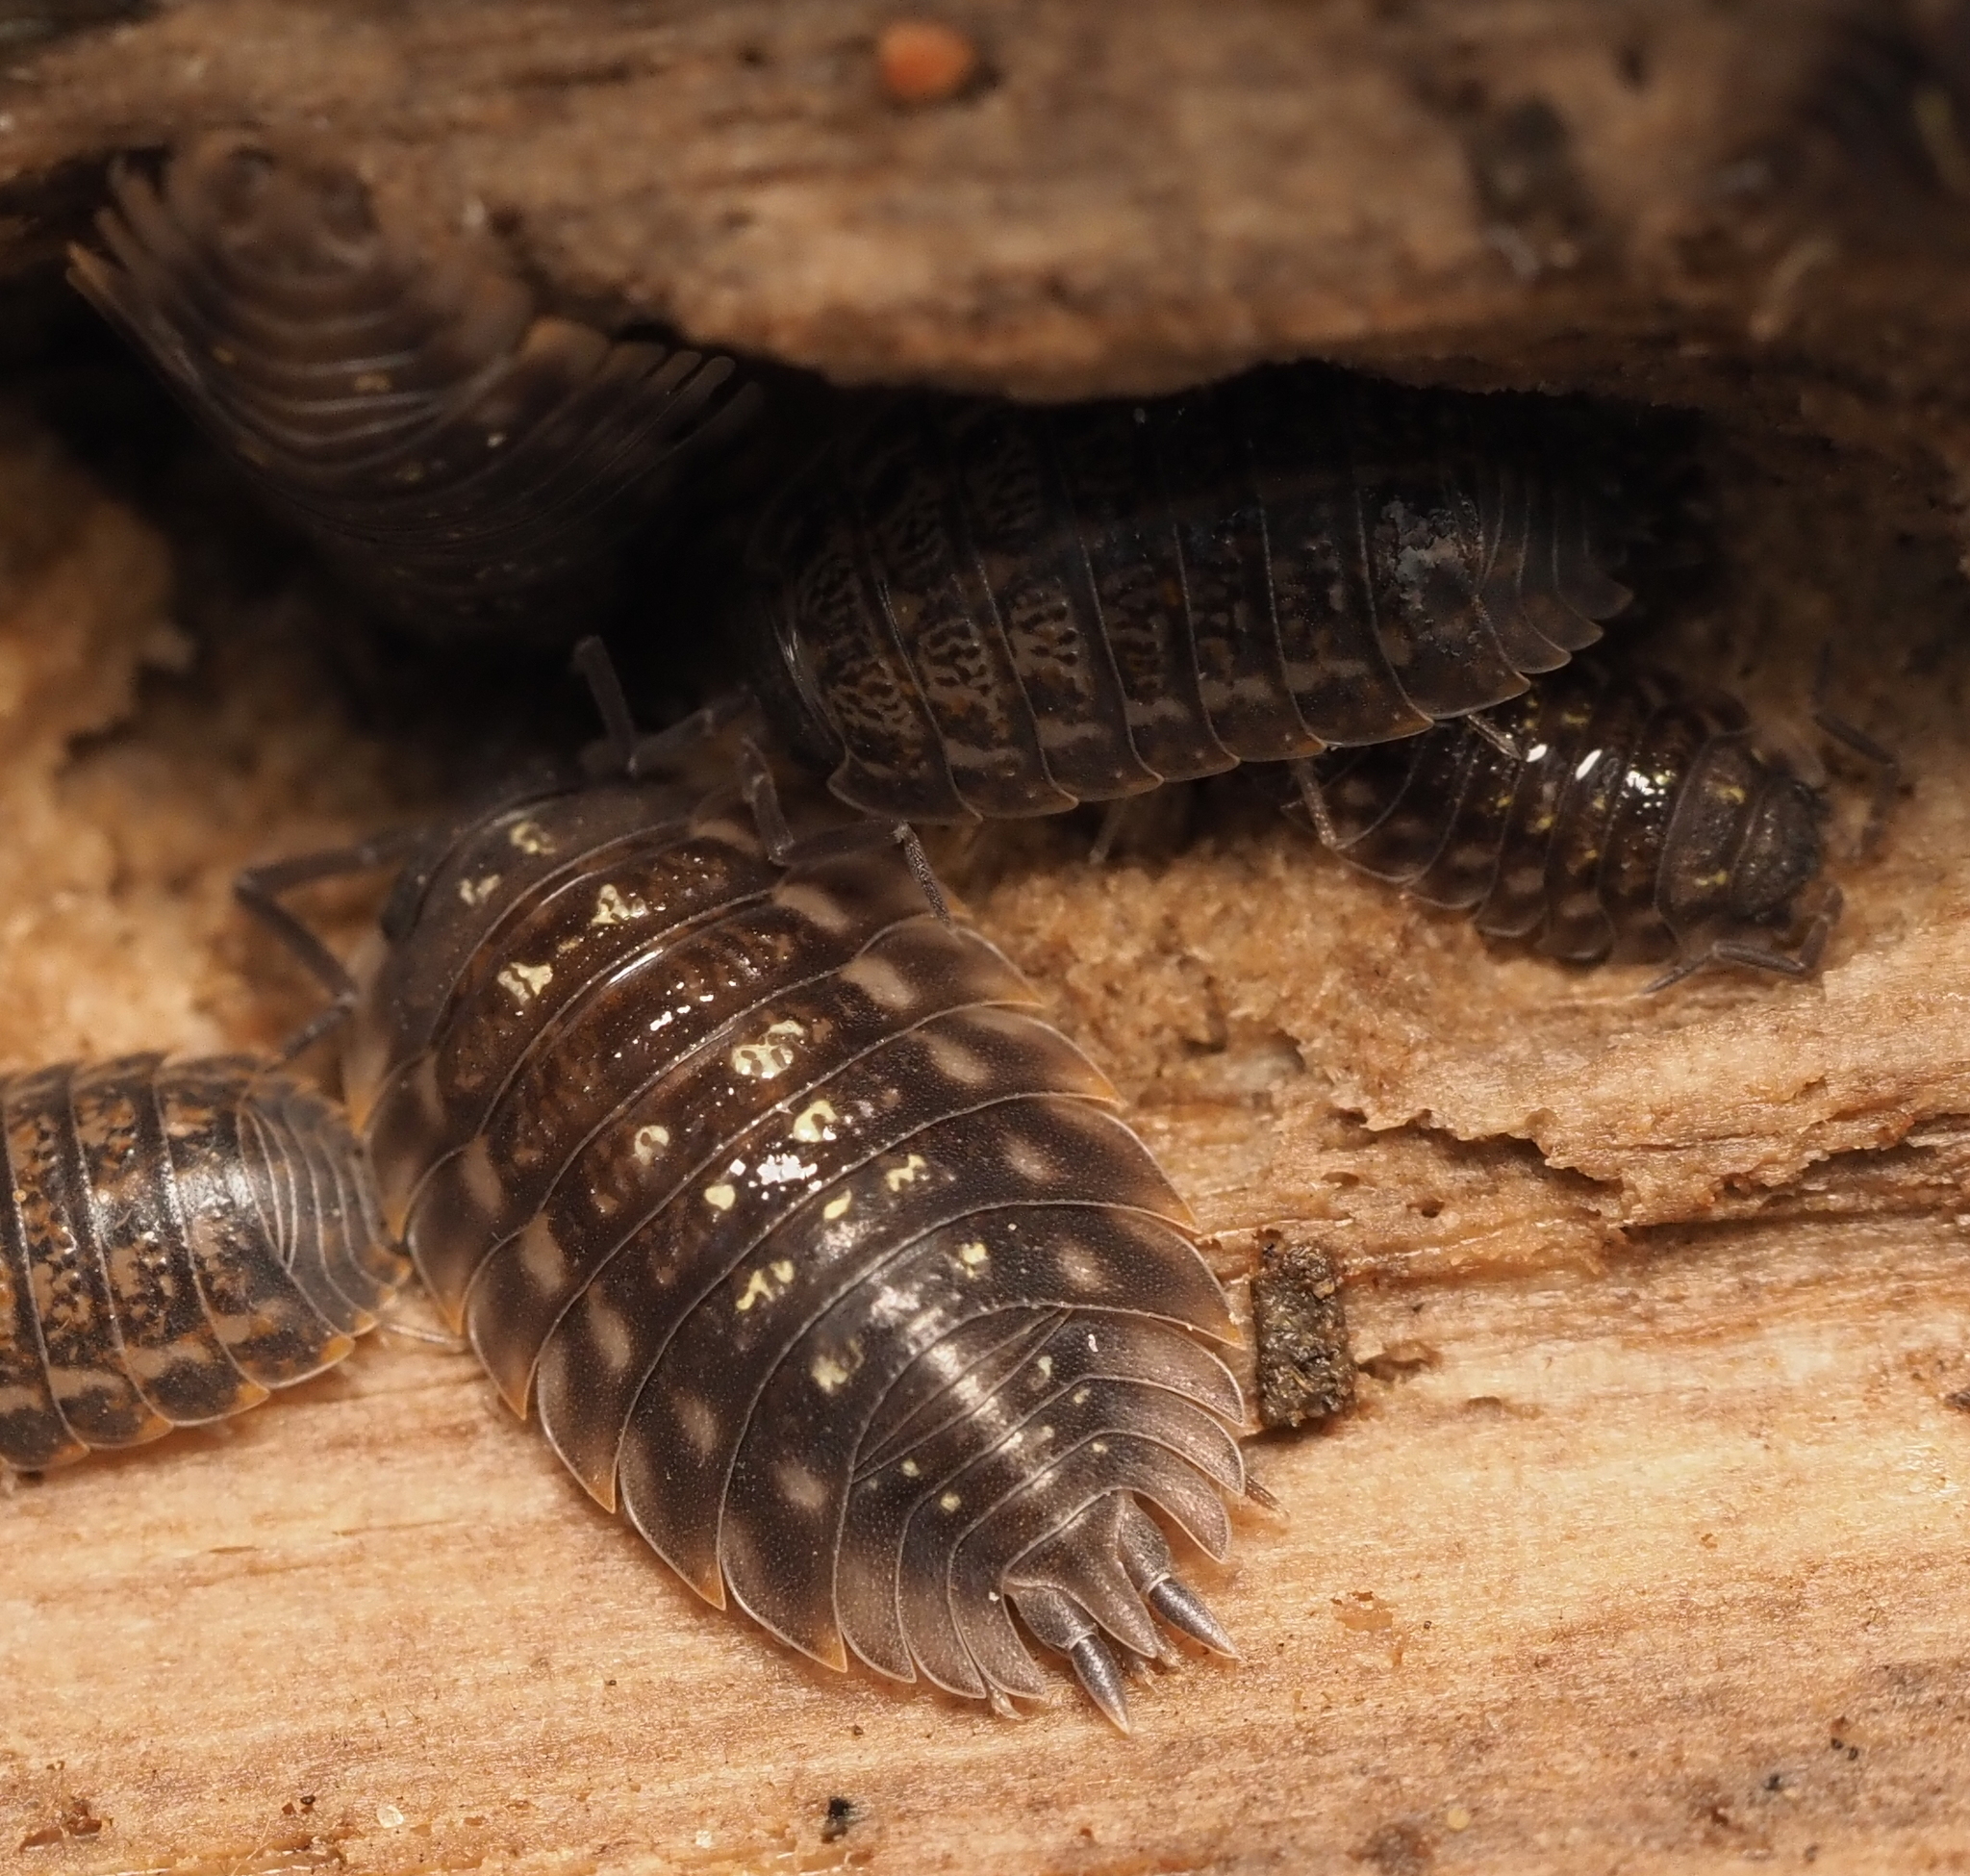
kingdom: Animalia
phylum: Arthropoda
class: Malacostraca
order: Isopoda
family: Oniscidae
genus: Oniscus
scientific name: Oniscus asellus
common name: Common shiny woodlouse
